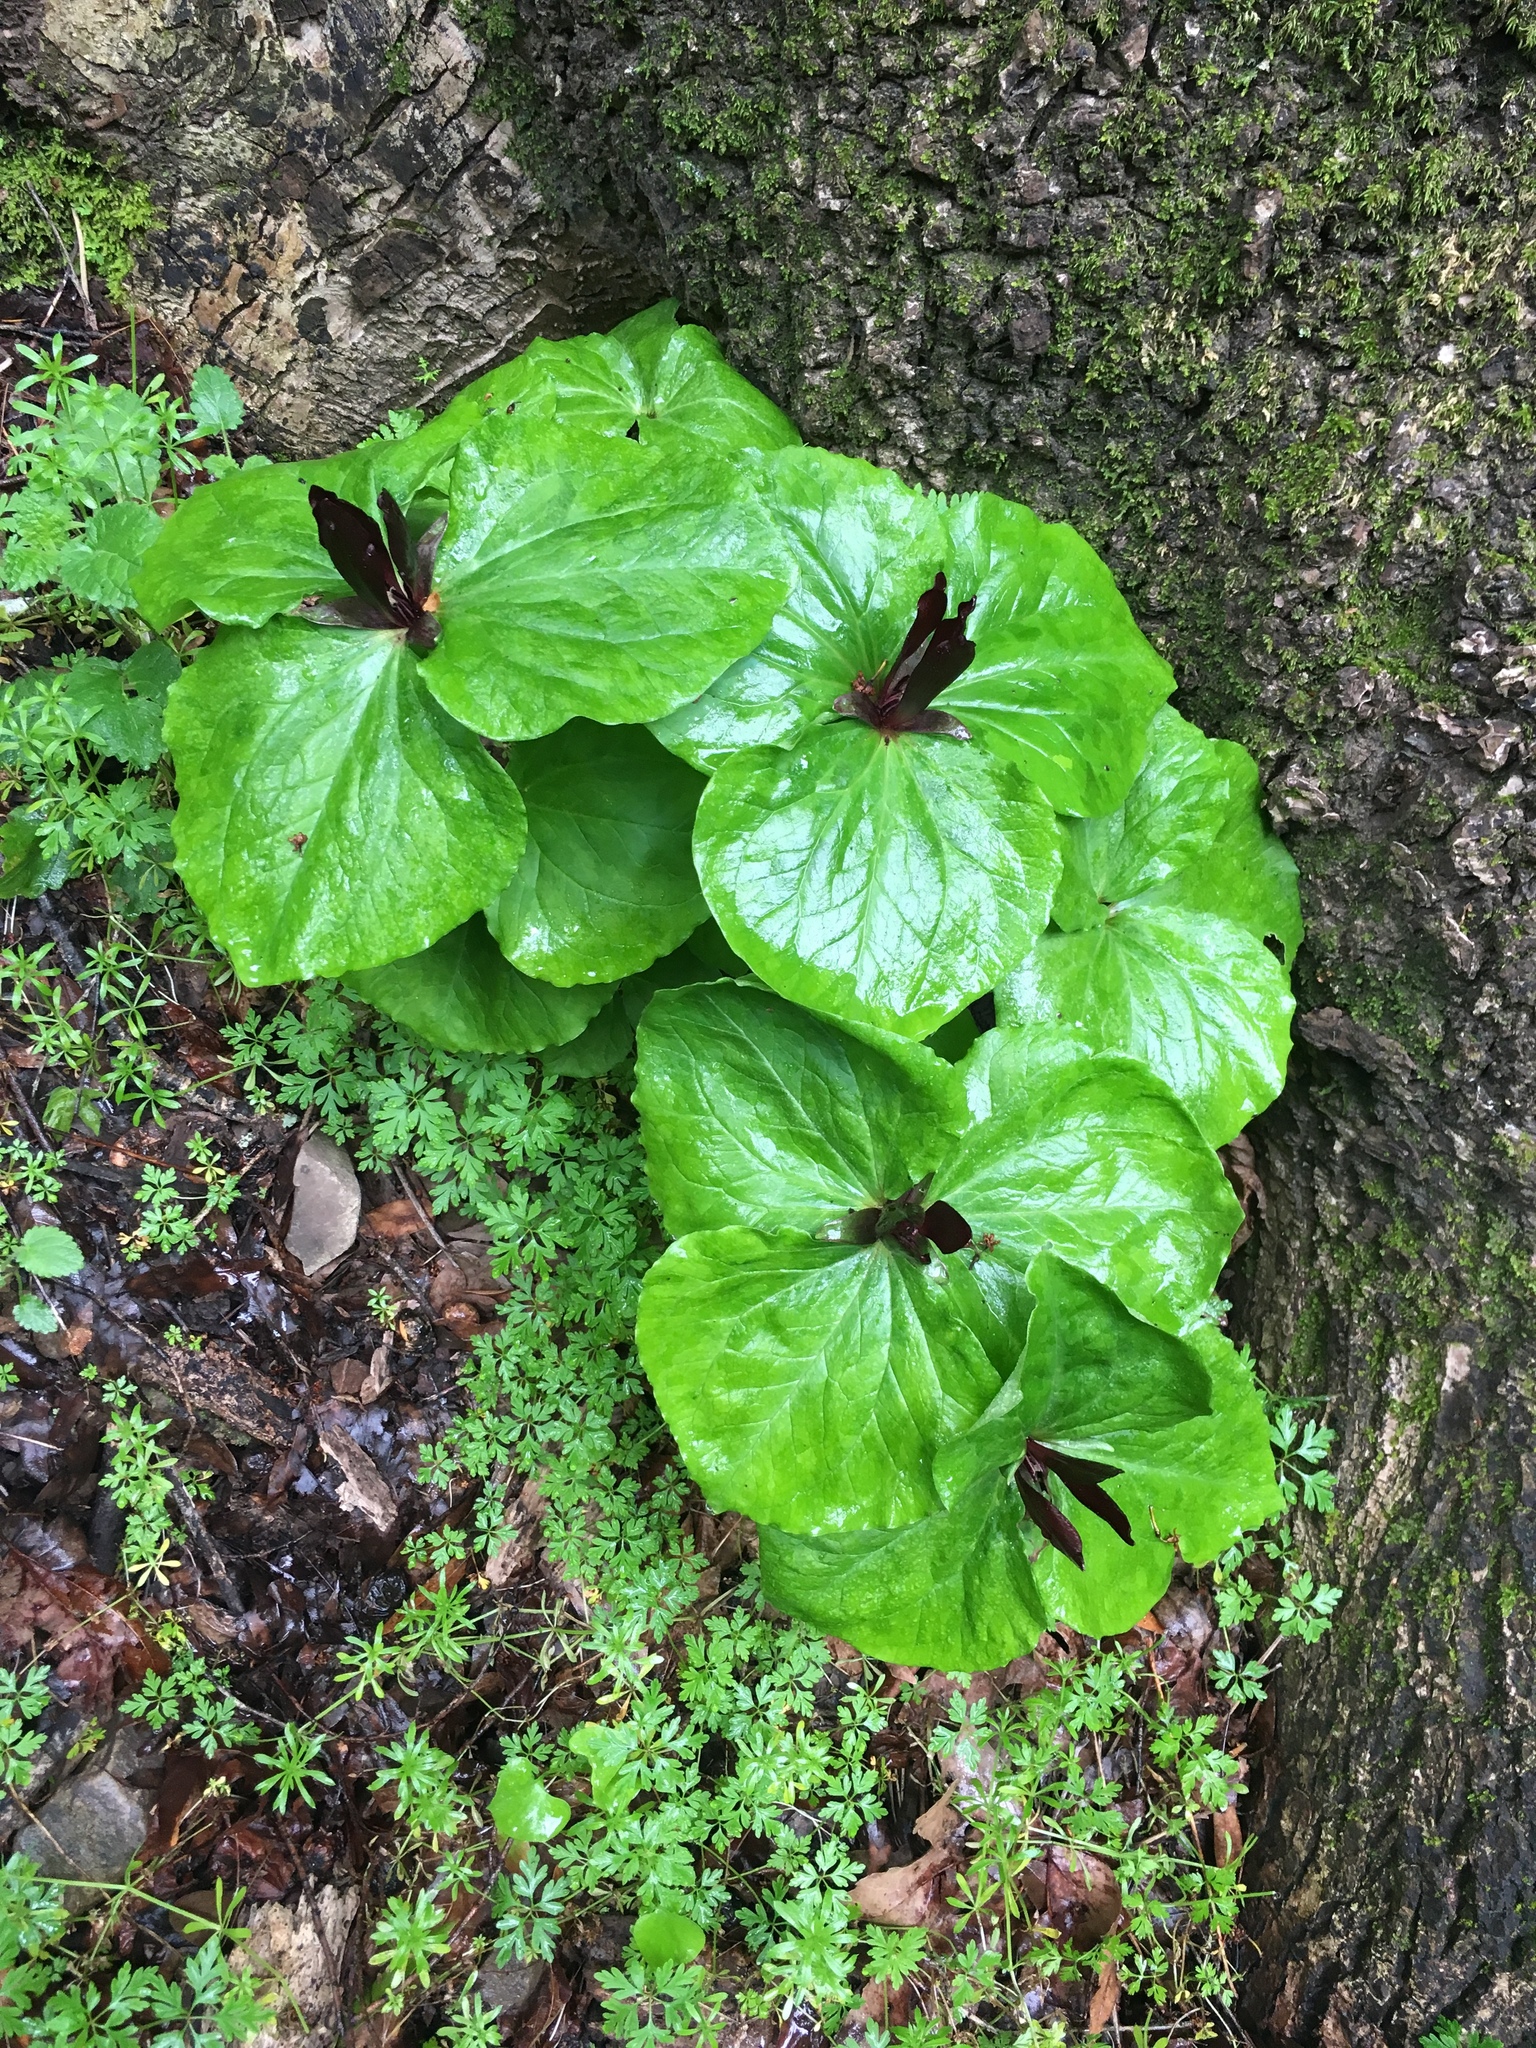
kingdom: Plantae
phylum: Tracheophyta
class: Liliopsida
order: Liliales
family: Melanthiaceae
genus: Trillium
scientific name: Trillium chloropetalum
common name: Giant trillium
